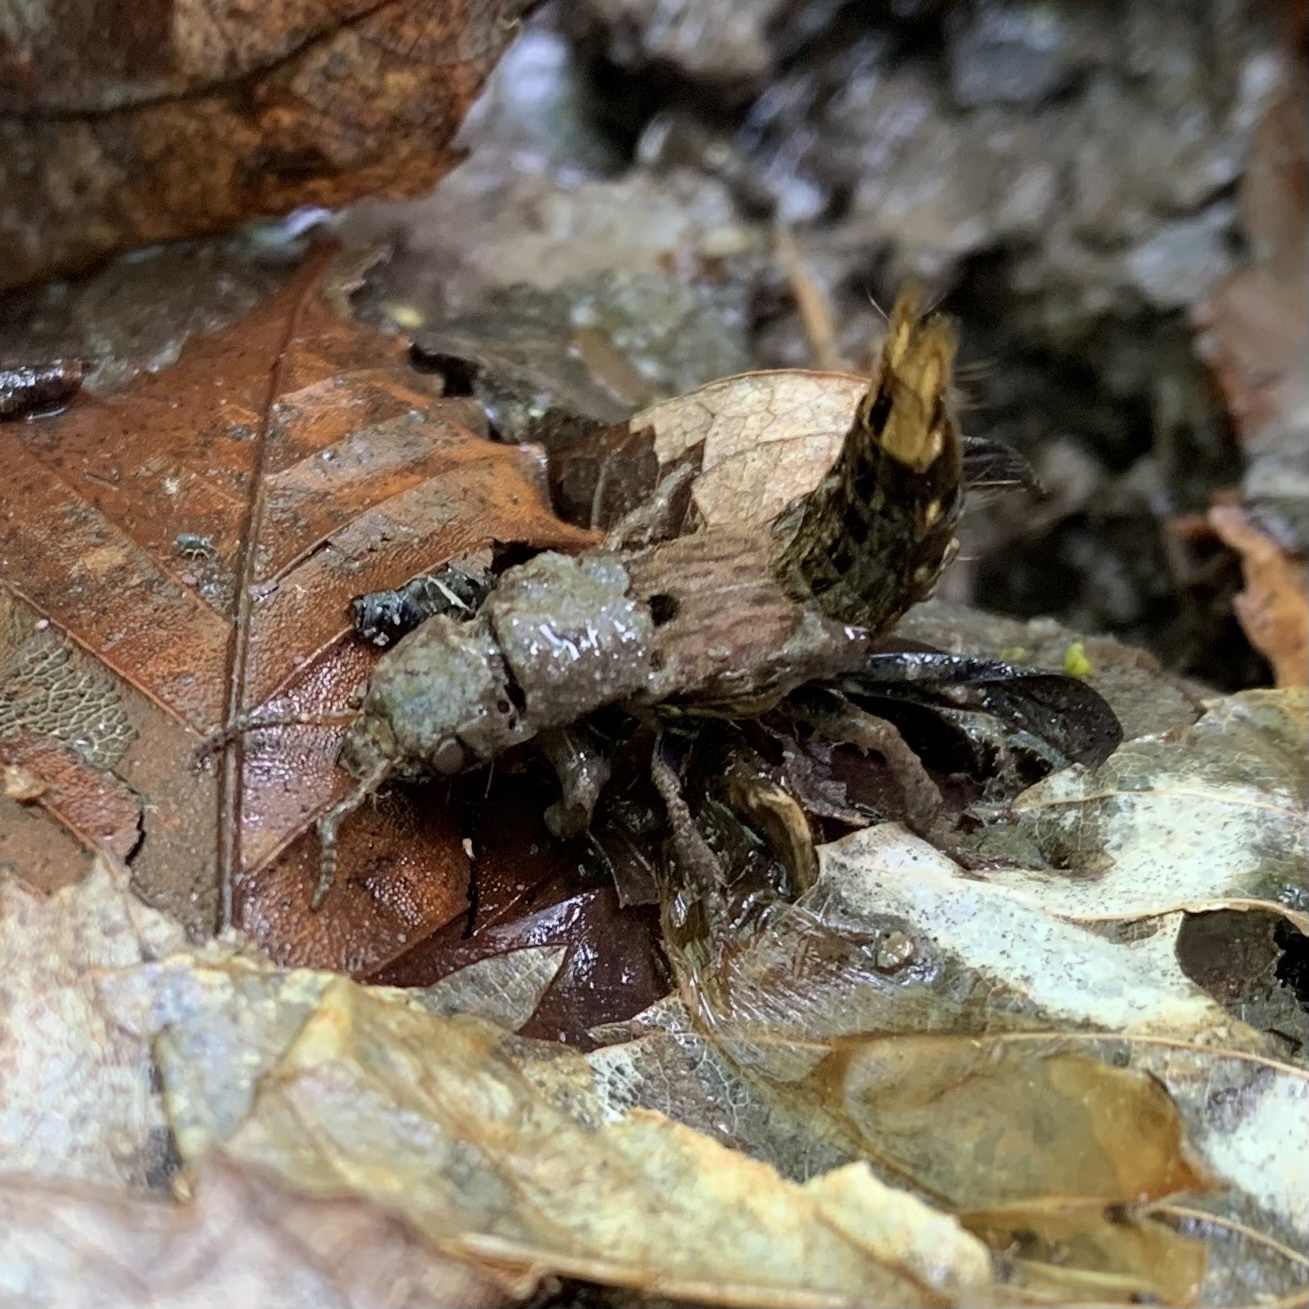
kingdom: Animalia
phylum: Arthropoda
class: Insecta
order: Coleoptera
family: Staphylinidae
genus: Platydracus
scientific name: Platydracus maculosus
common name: Brown rove beetle
